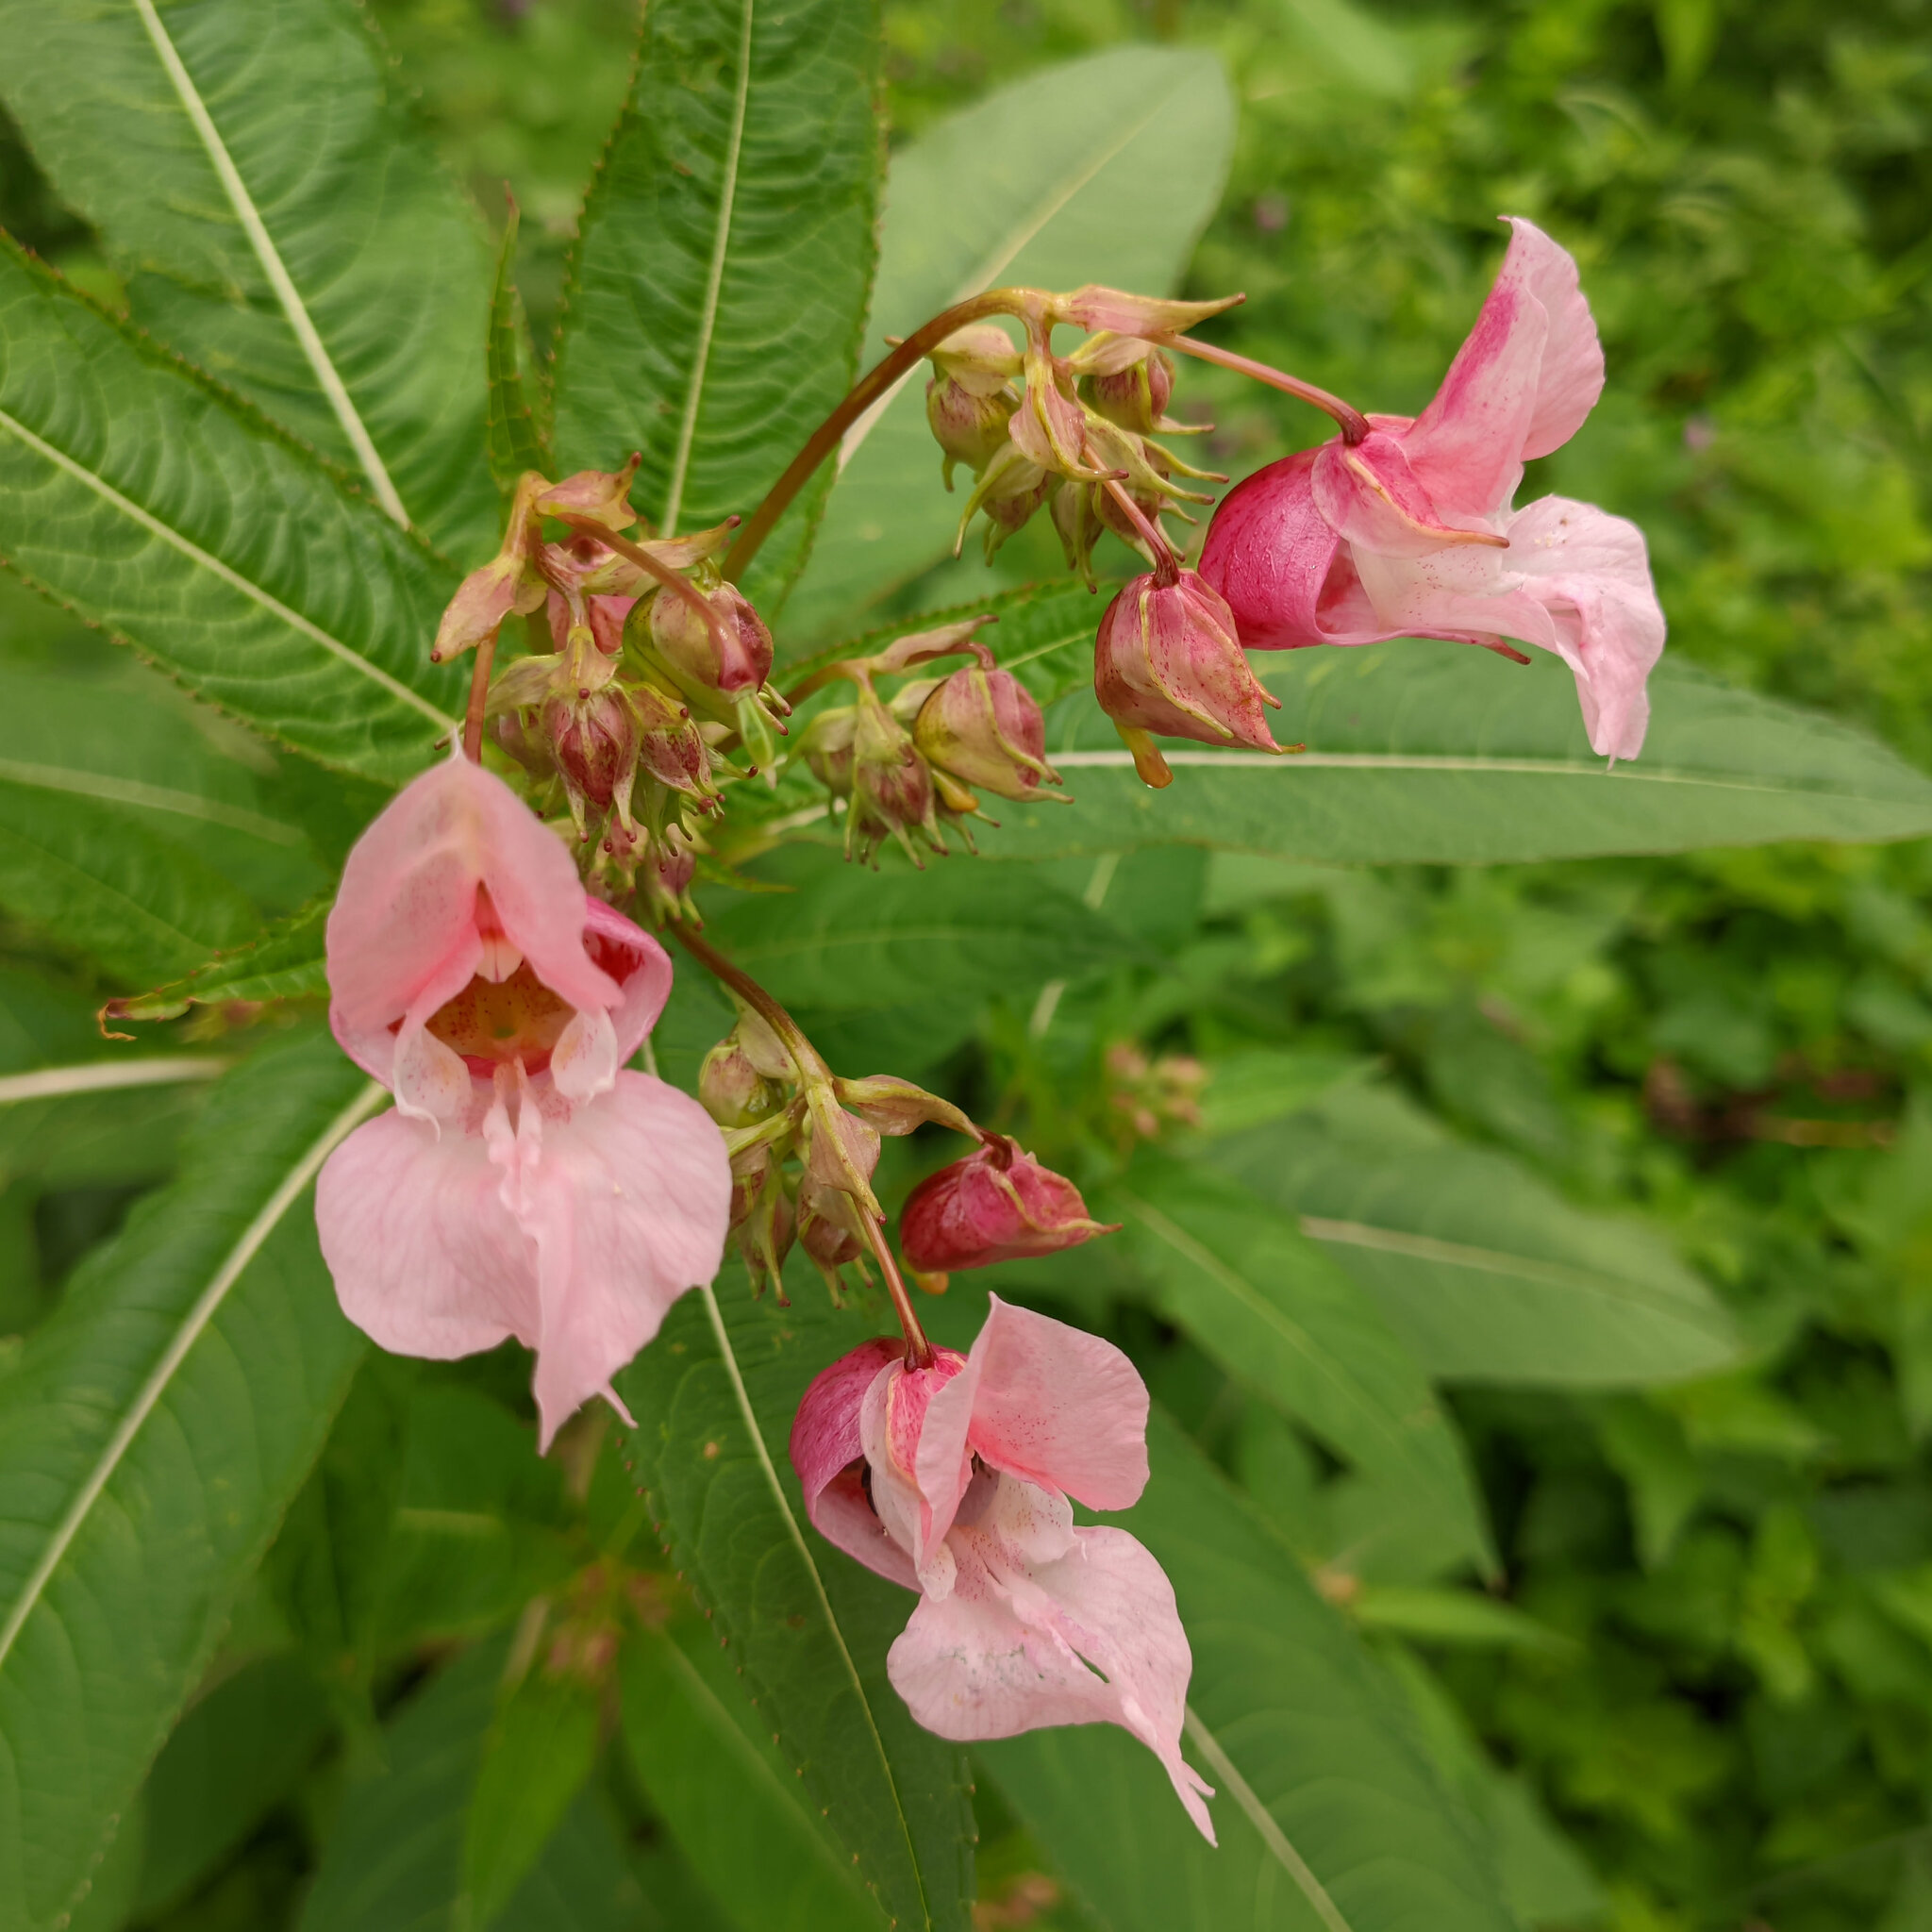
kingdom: Plantae
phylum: Tracheophyta
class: Magnoliopsida
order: Ericales
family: Balsaminaceae
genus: Impatiens
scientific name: Impatiens glandulifera
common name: Himalayan balsam
